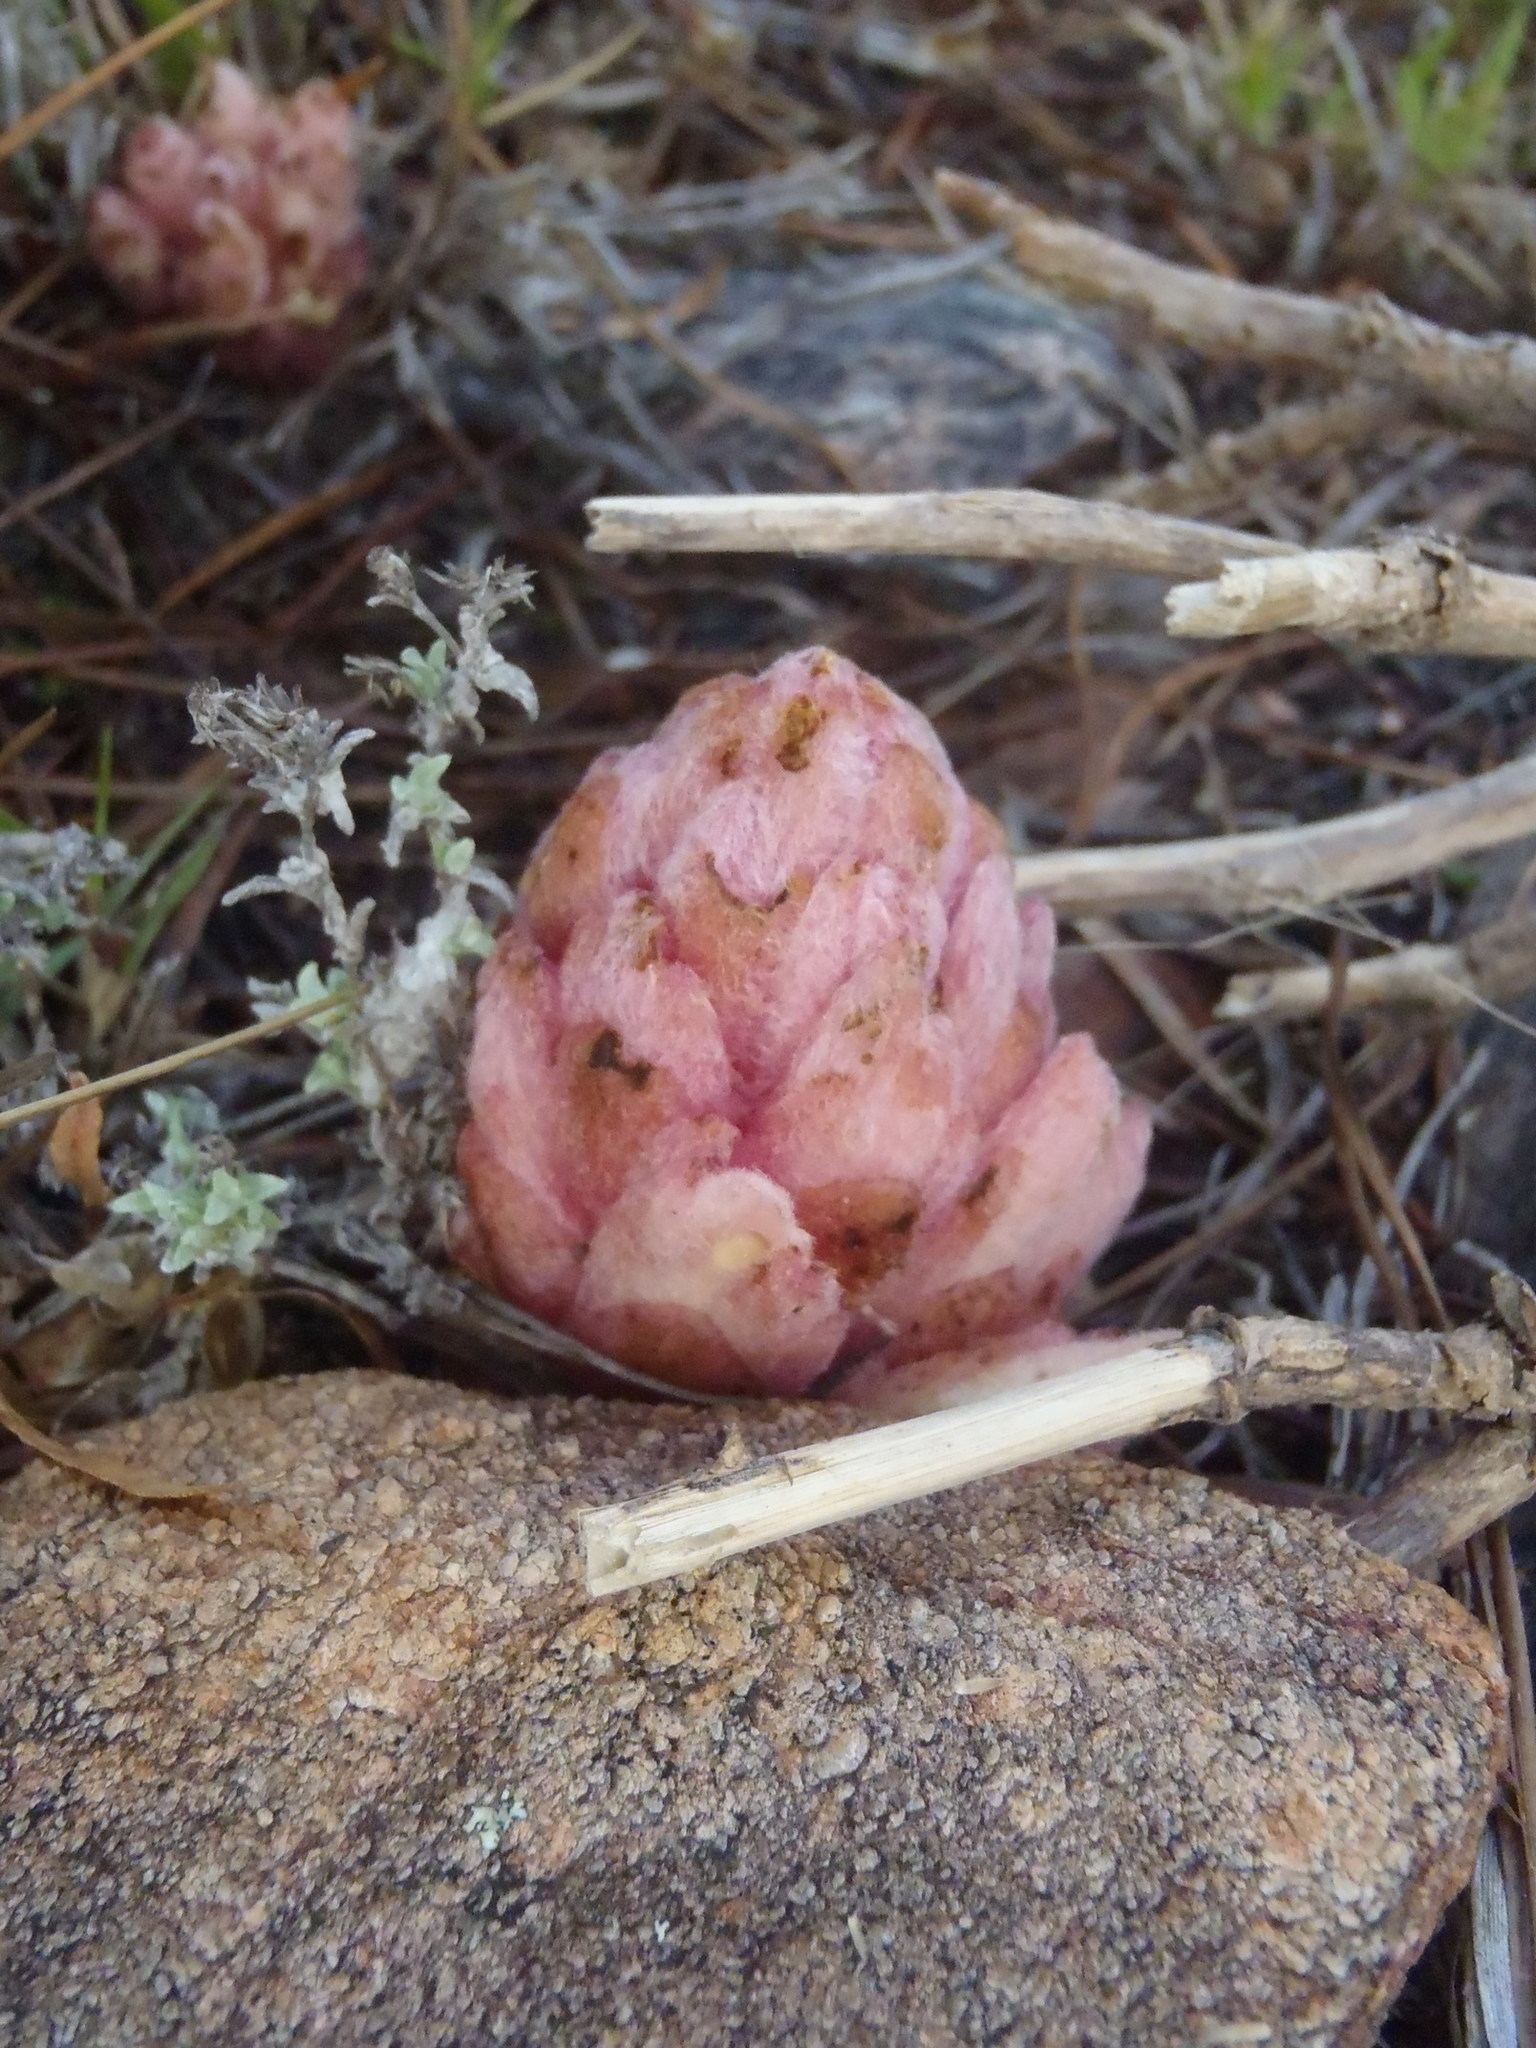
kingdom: Plantae
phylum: Tracheophyta
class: Magnoliopsida
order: Lamiales
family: Orobanchaceae
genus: Hyobanche
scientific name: Hyobanche sanguinea
